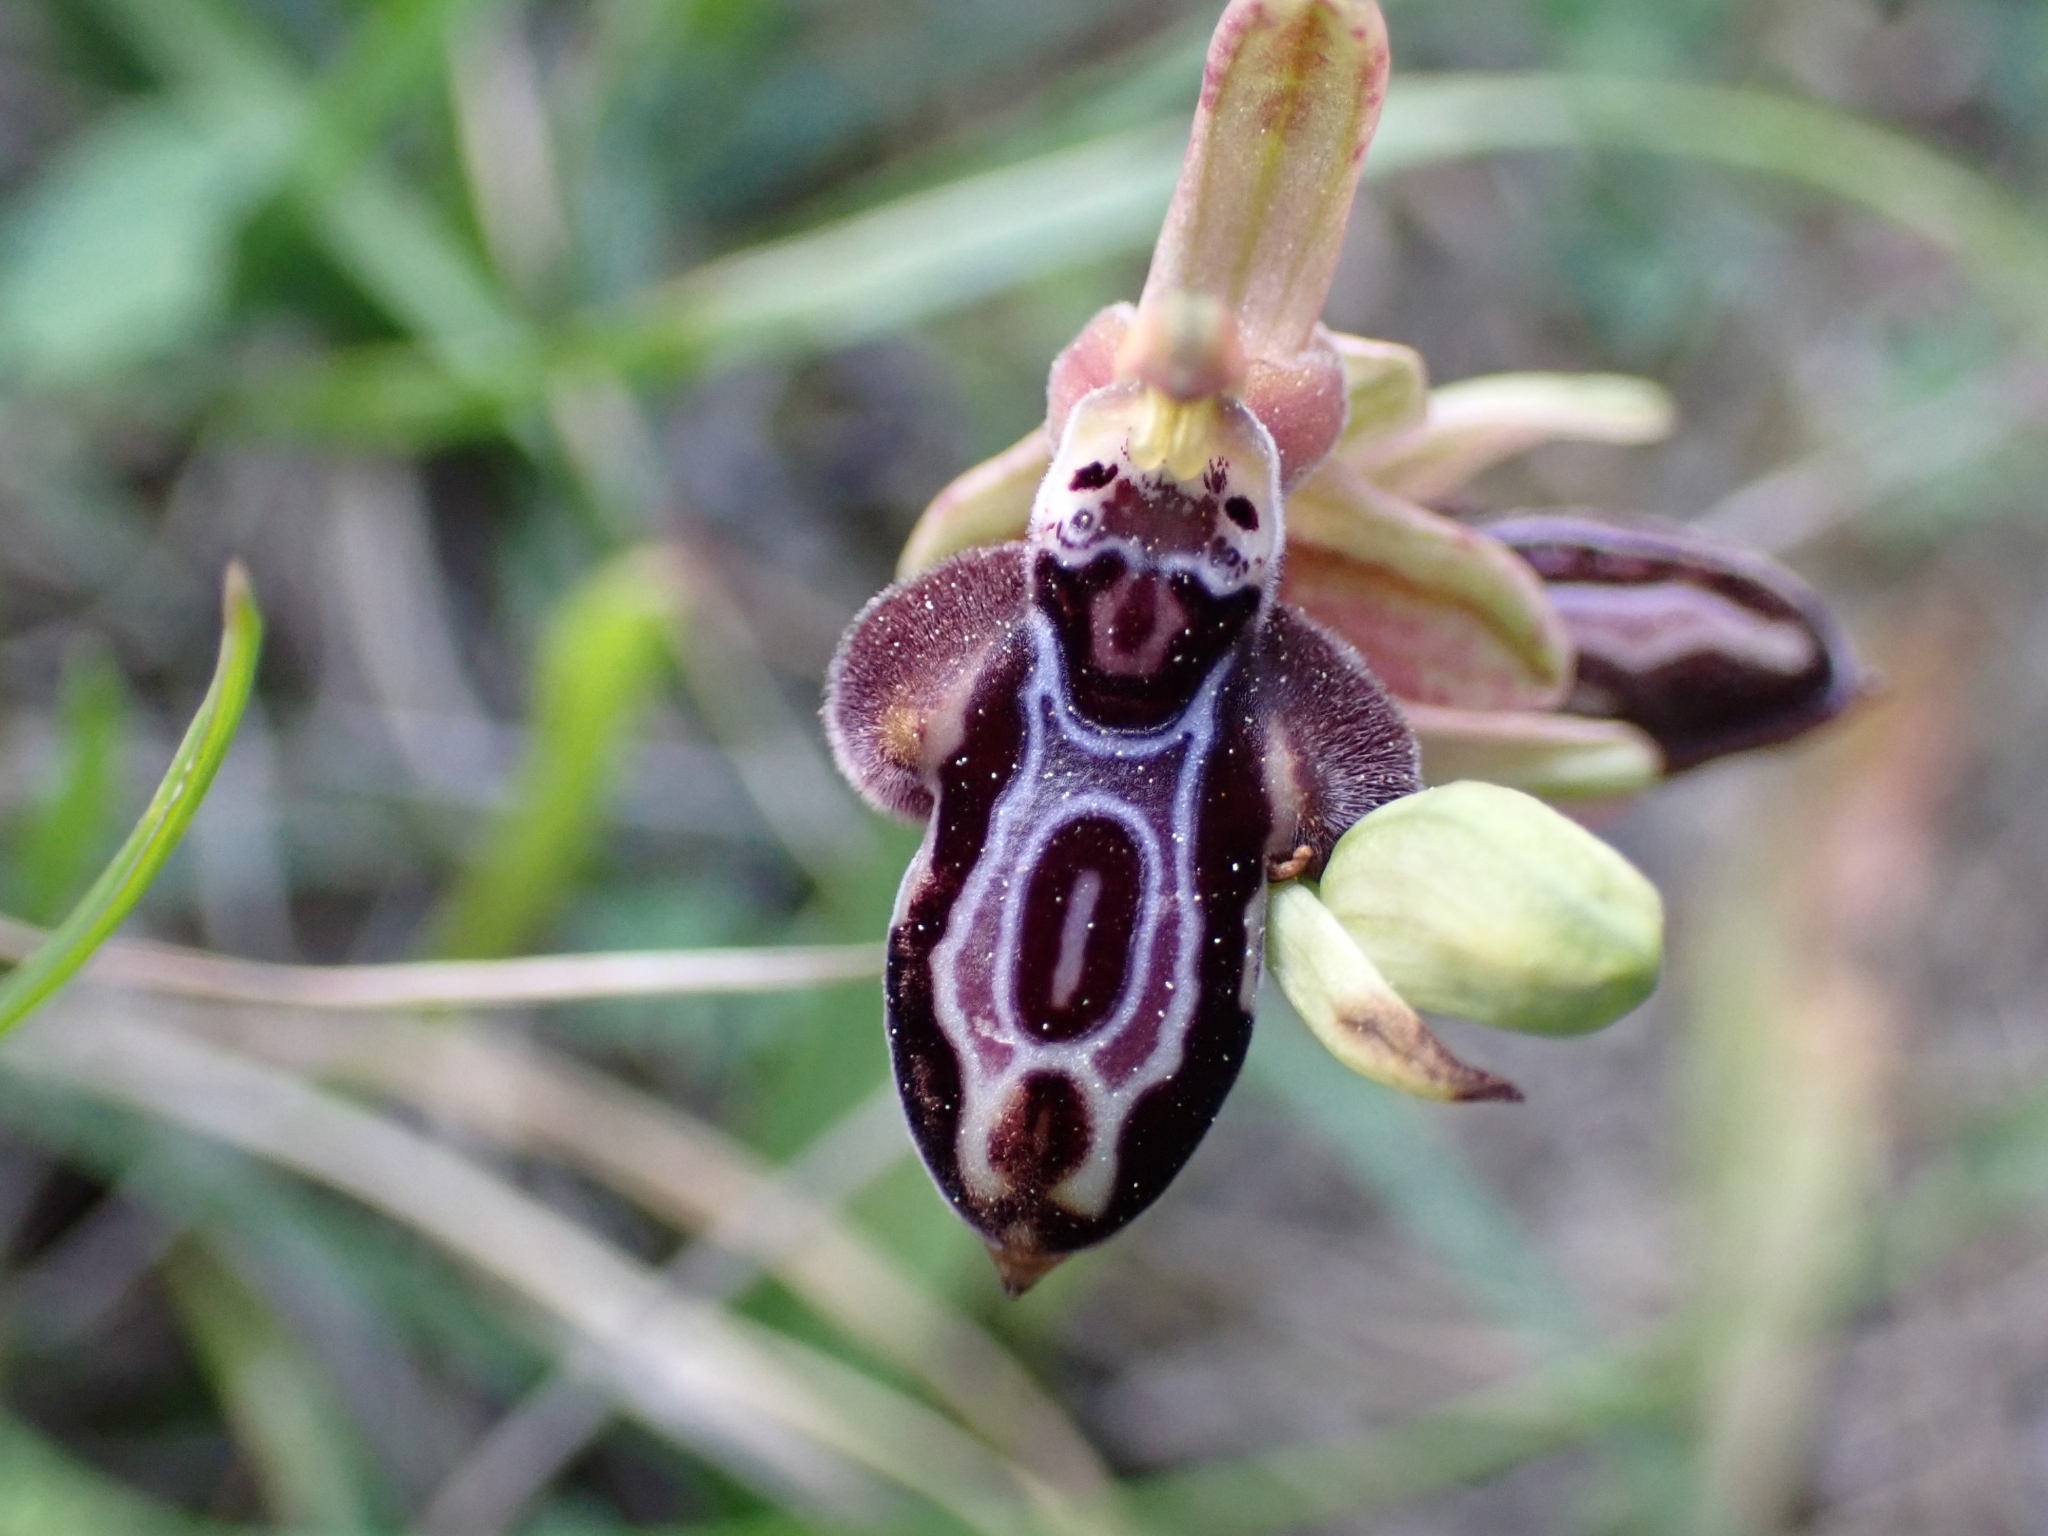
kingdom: Plantae
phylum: Tracheophyta
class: Liliopsida
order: Asparagales
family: Orchidaceae
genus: Ophrys
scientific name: Ophrys cretica
